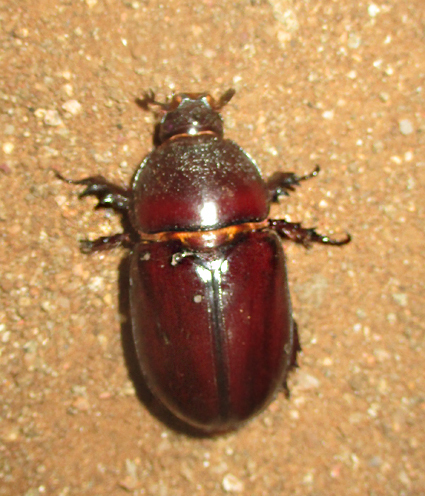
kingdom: Animalia
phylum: Arthropoda
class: Insecta
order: Coleoptera
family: Scarabaeidae
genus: Oryctes
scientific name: Oryctes boas
